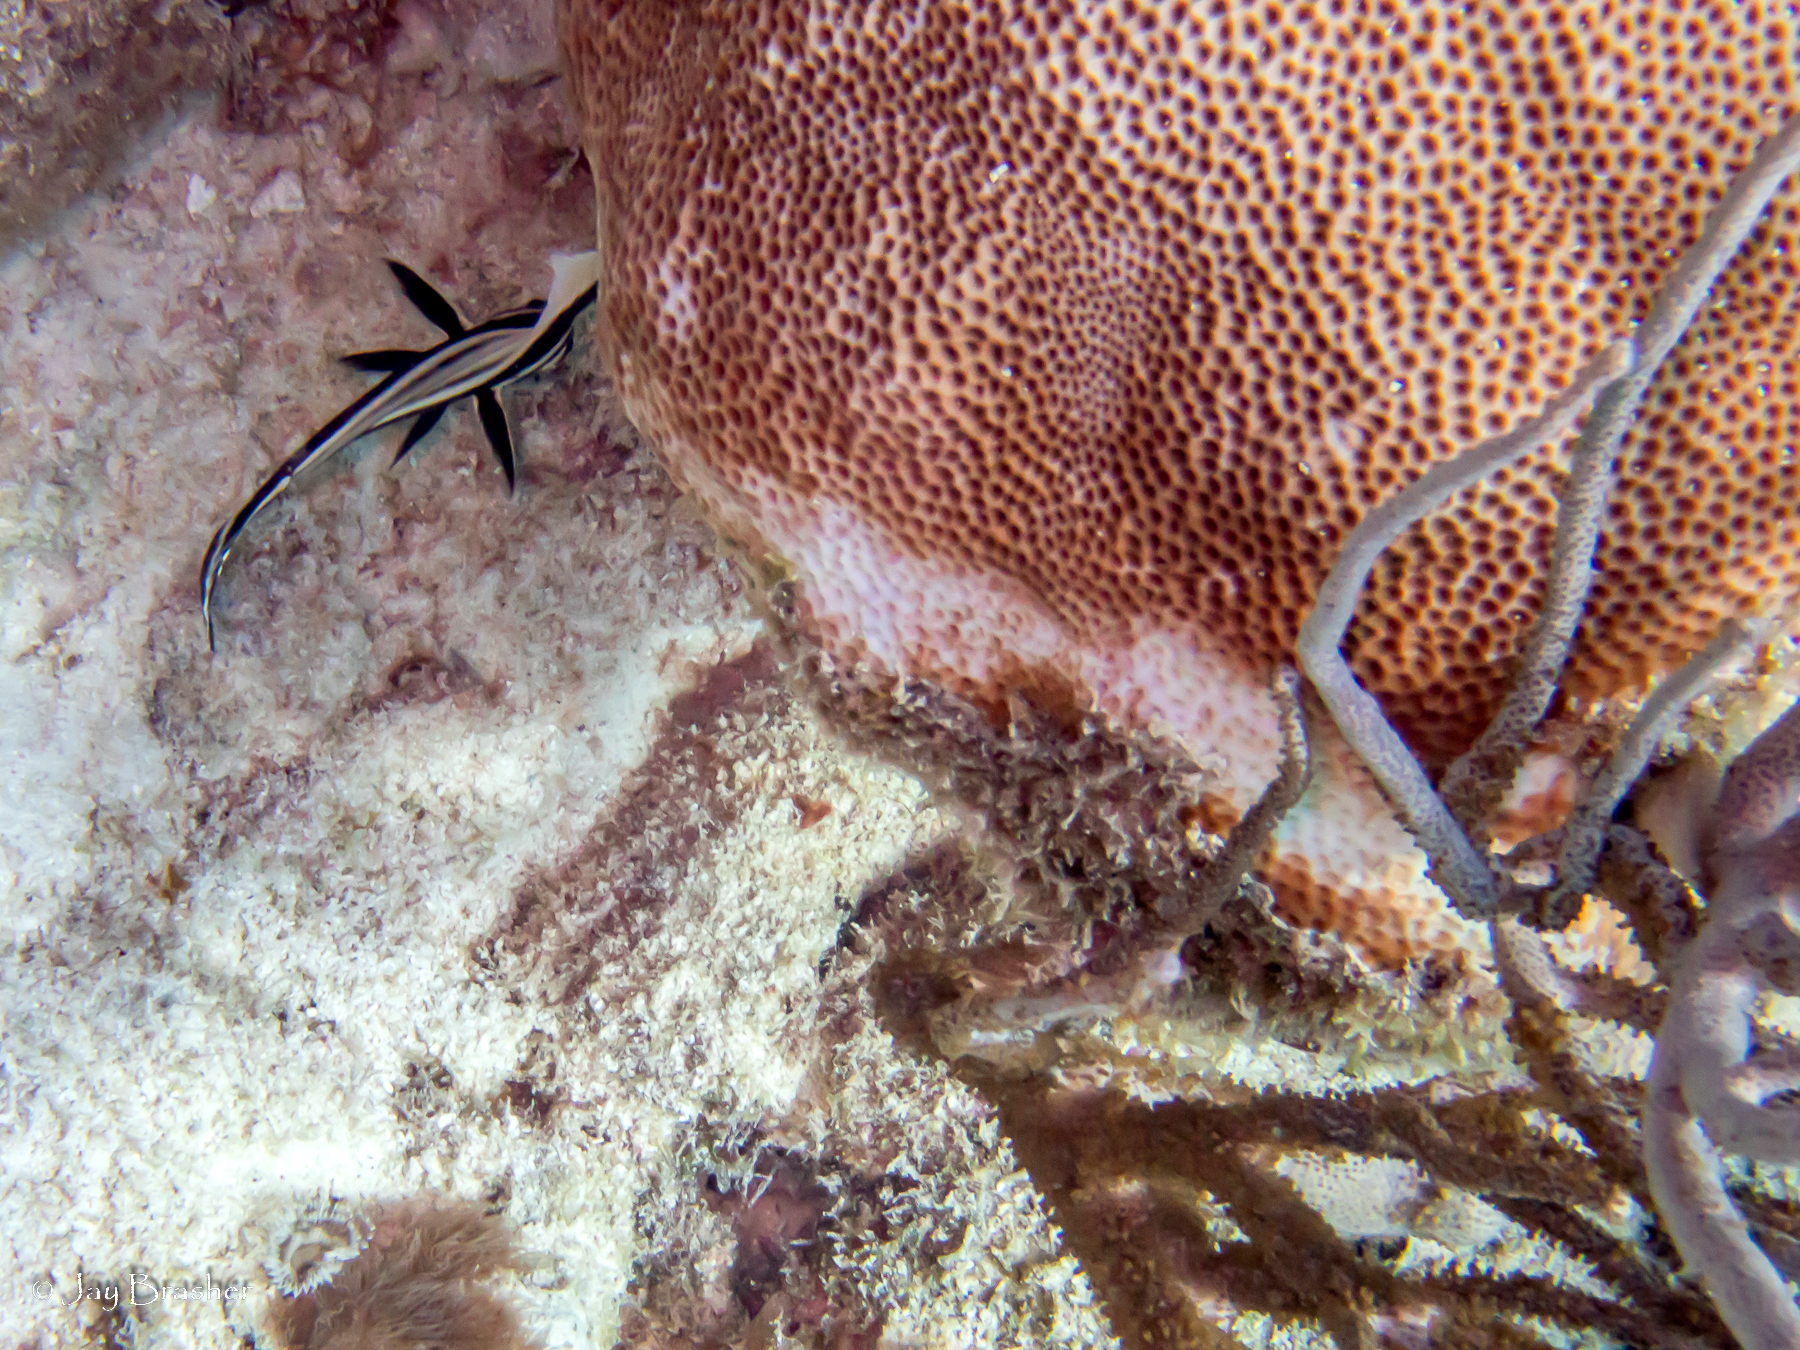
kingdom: Animalia
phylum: Chordata
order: Perciformes
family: Sciaenidae
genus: Equetus
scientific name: Equetus punctatus
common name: Spotted drum
